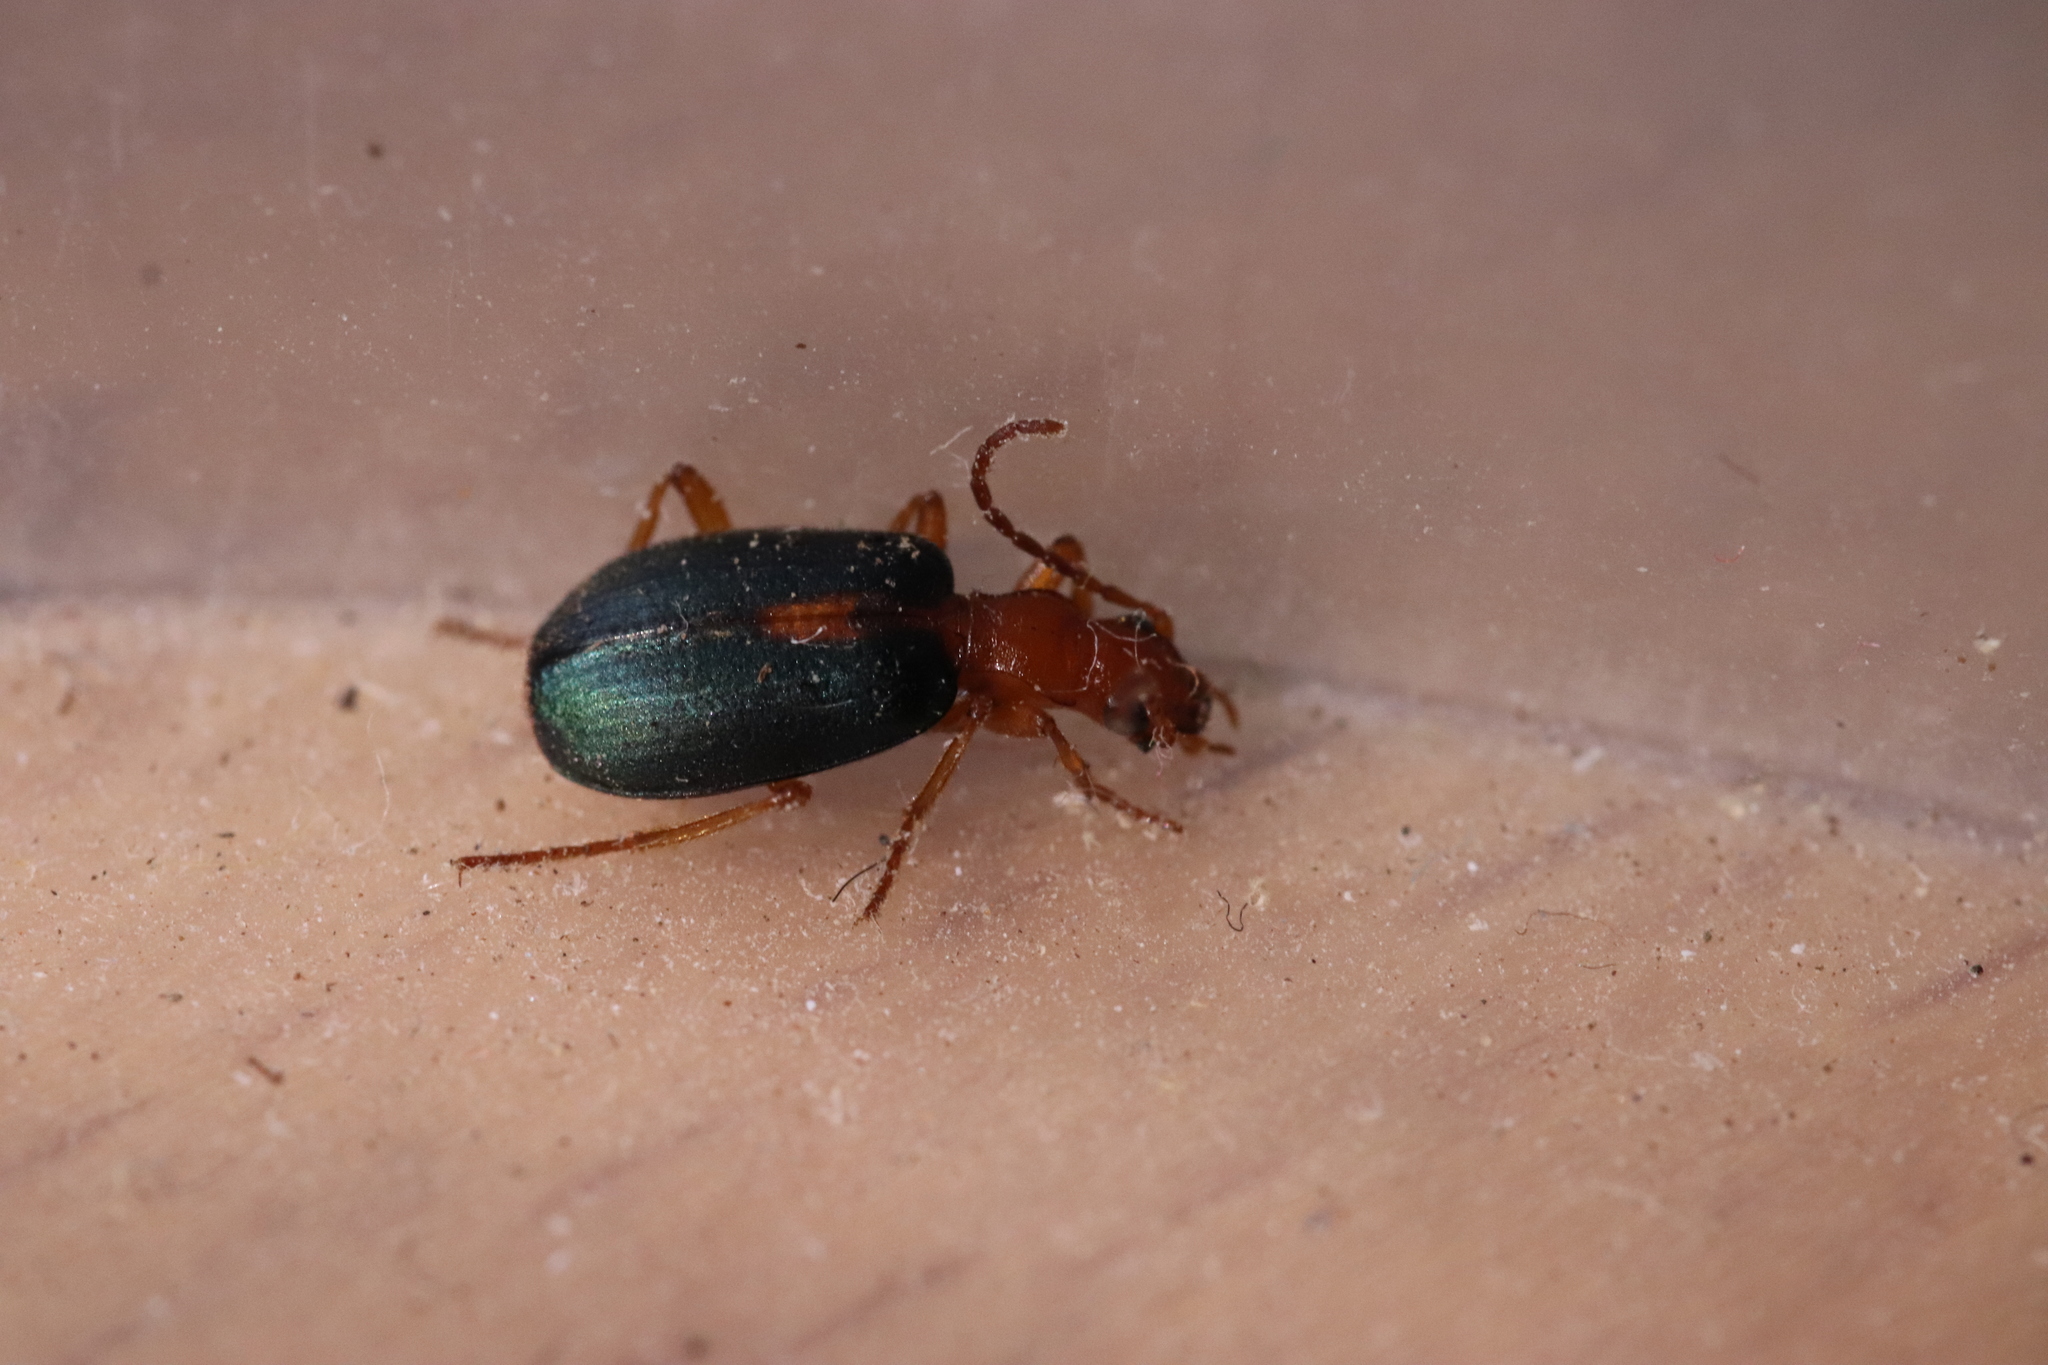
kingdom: Animalia
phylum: Arthropoda
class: Insecta
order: Coleoptera
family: Carabidae
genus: Brachinus
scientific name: Brachinus sclopeta
